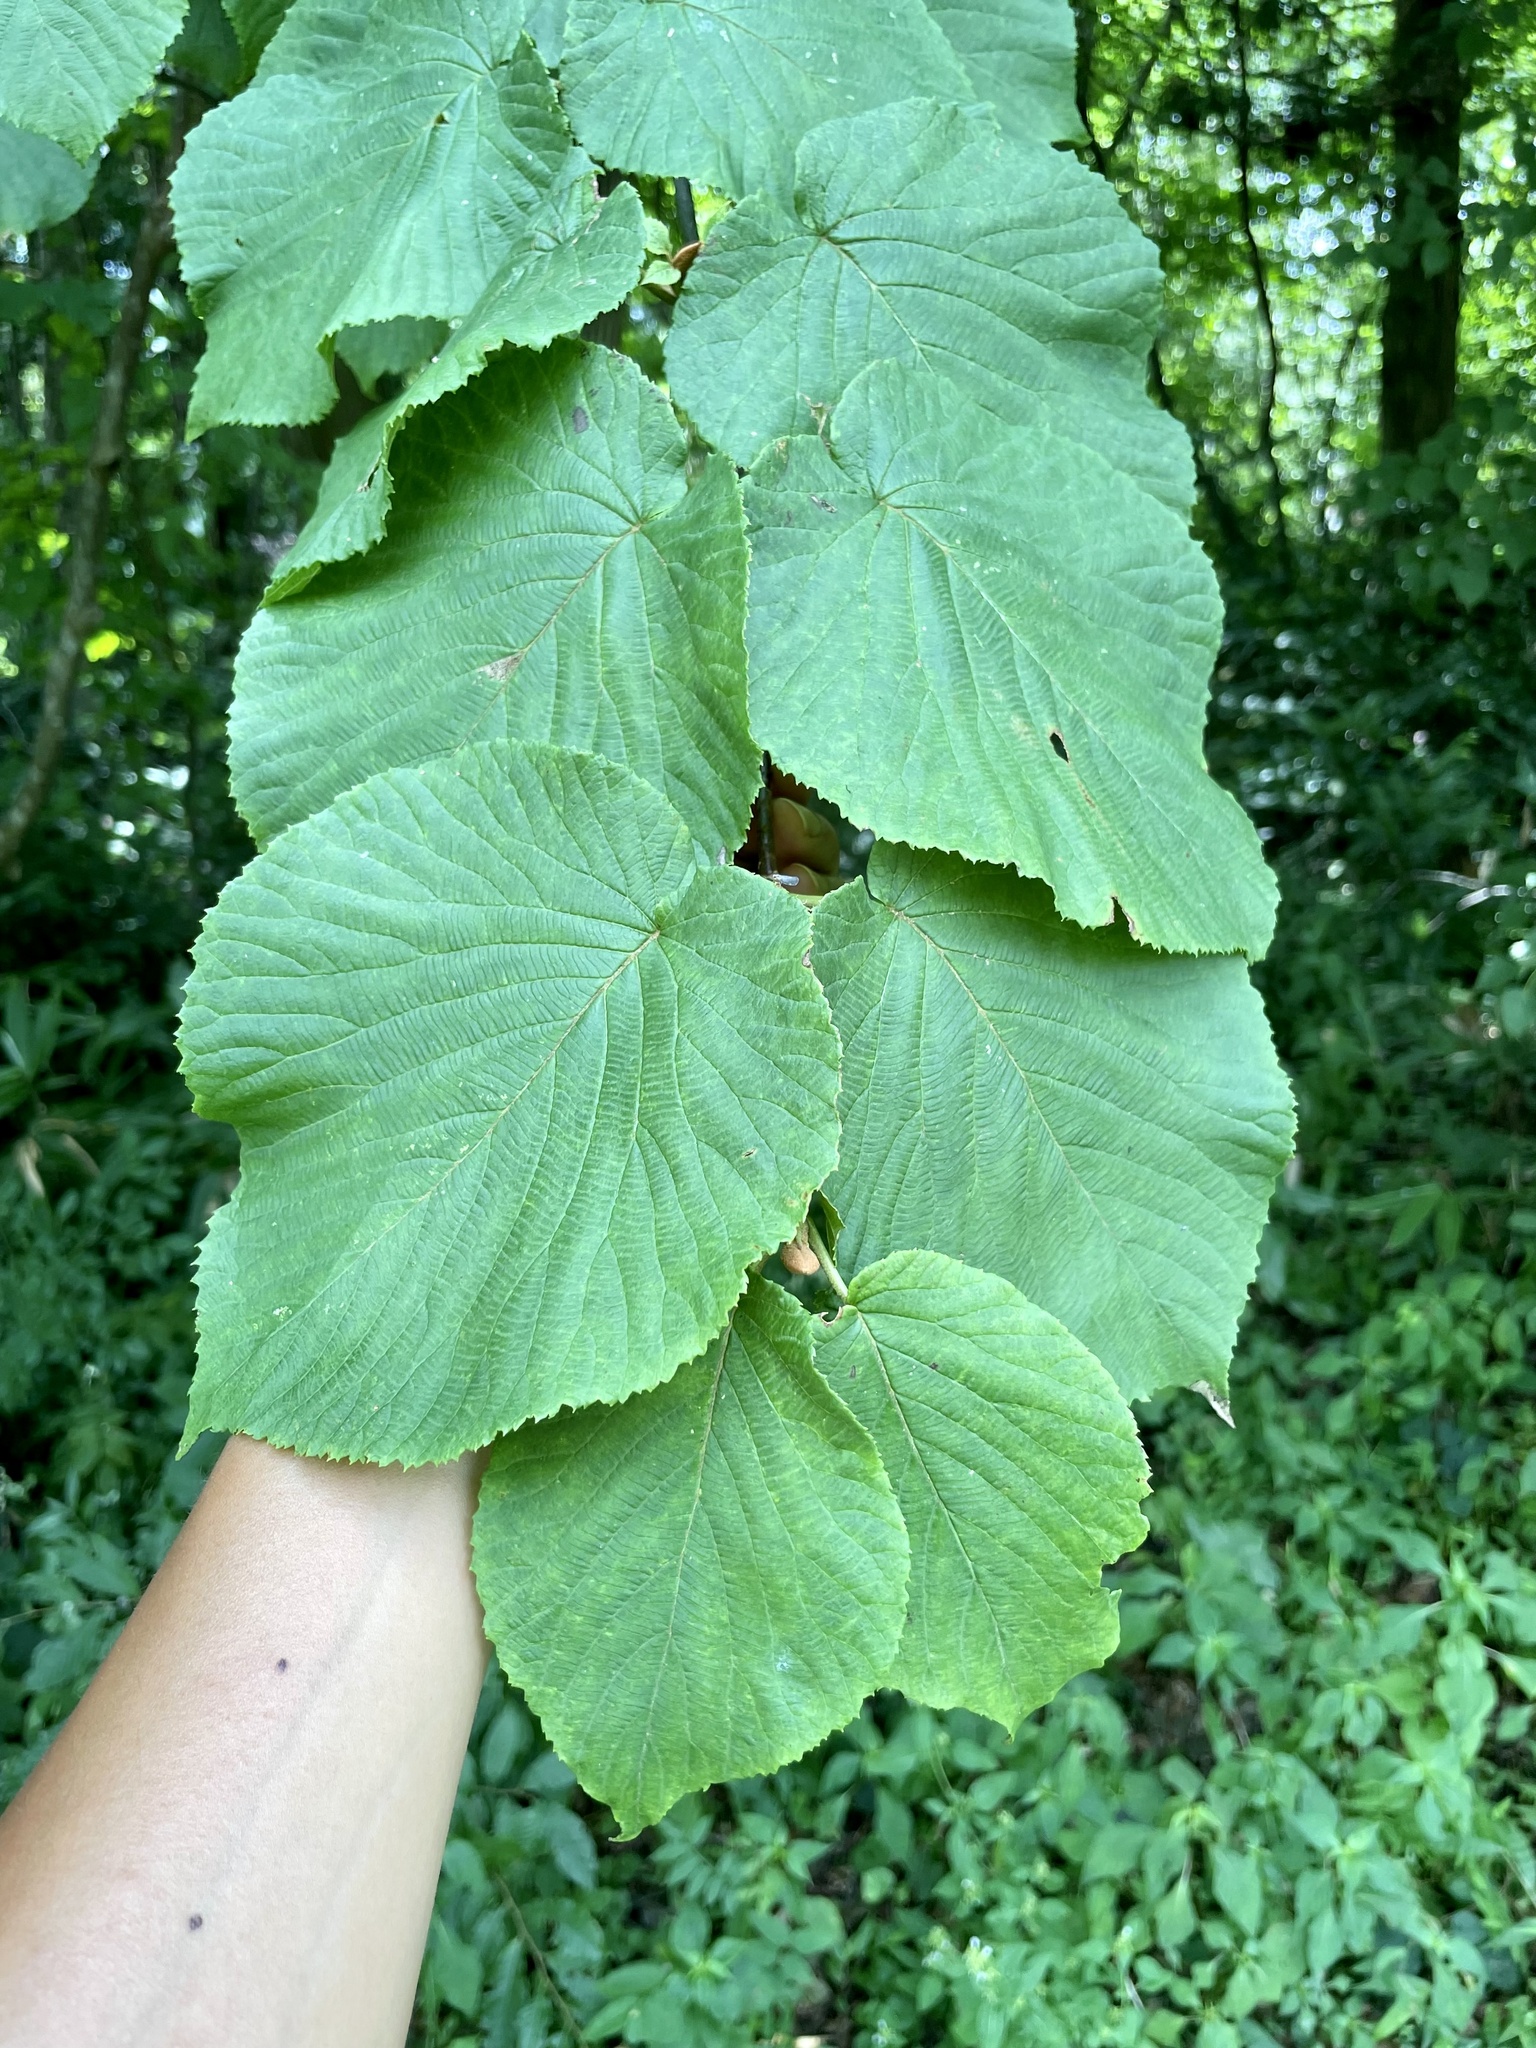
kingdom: Plantae
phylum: Tracheophyta
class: Magnoliopsida
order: Dipsacales
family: Viburnaceae
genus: Viburnum
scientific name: Viburnum furcatum
